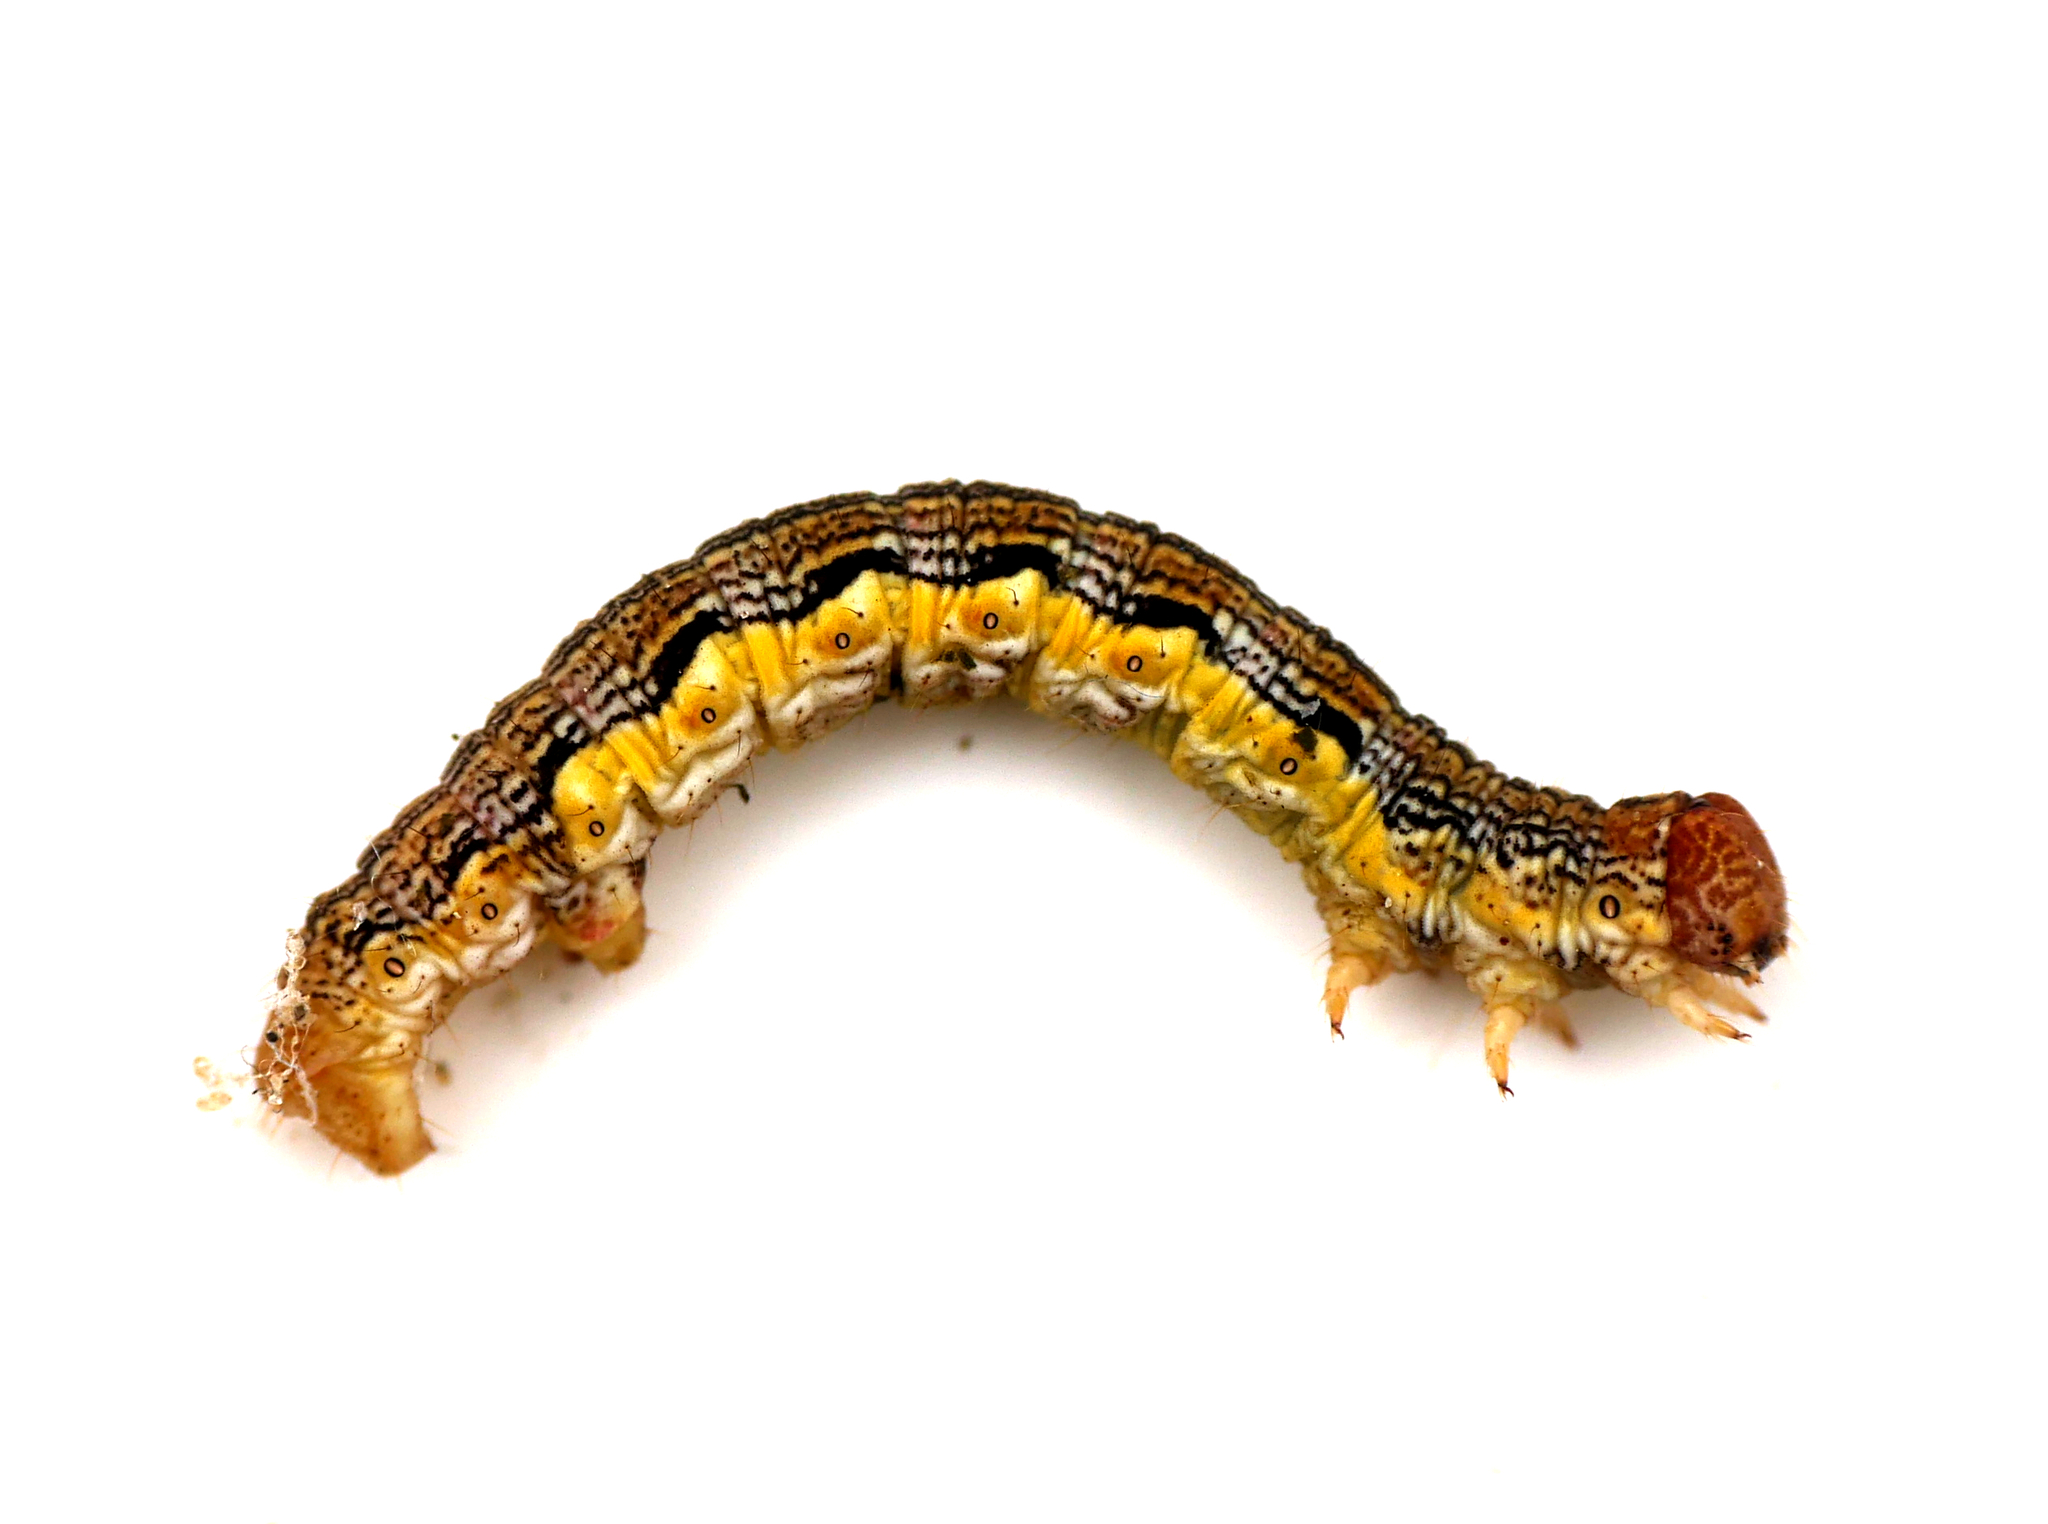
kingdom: Animalia
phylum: Arthropoda
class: Insecta
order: Lepidoptera
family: Geometridae
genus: Erannis
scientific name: Erannis defoliaria
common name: Mottled umber
